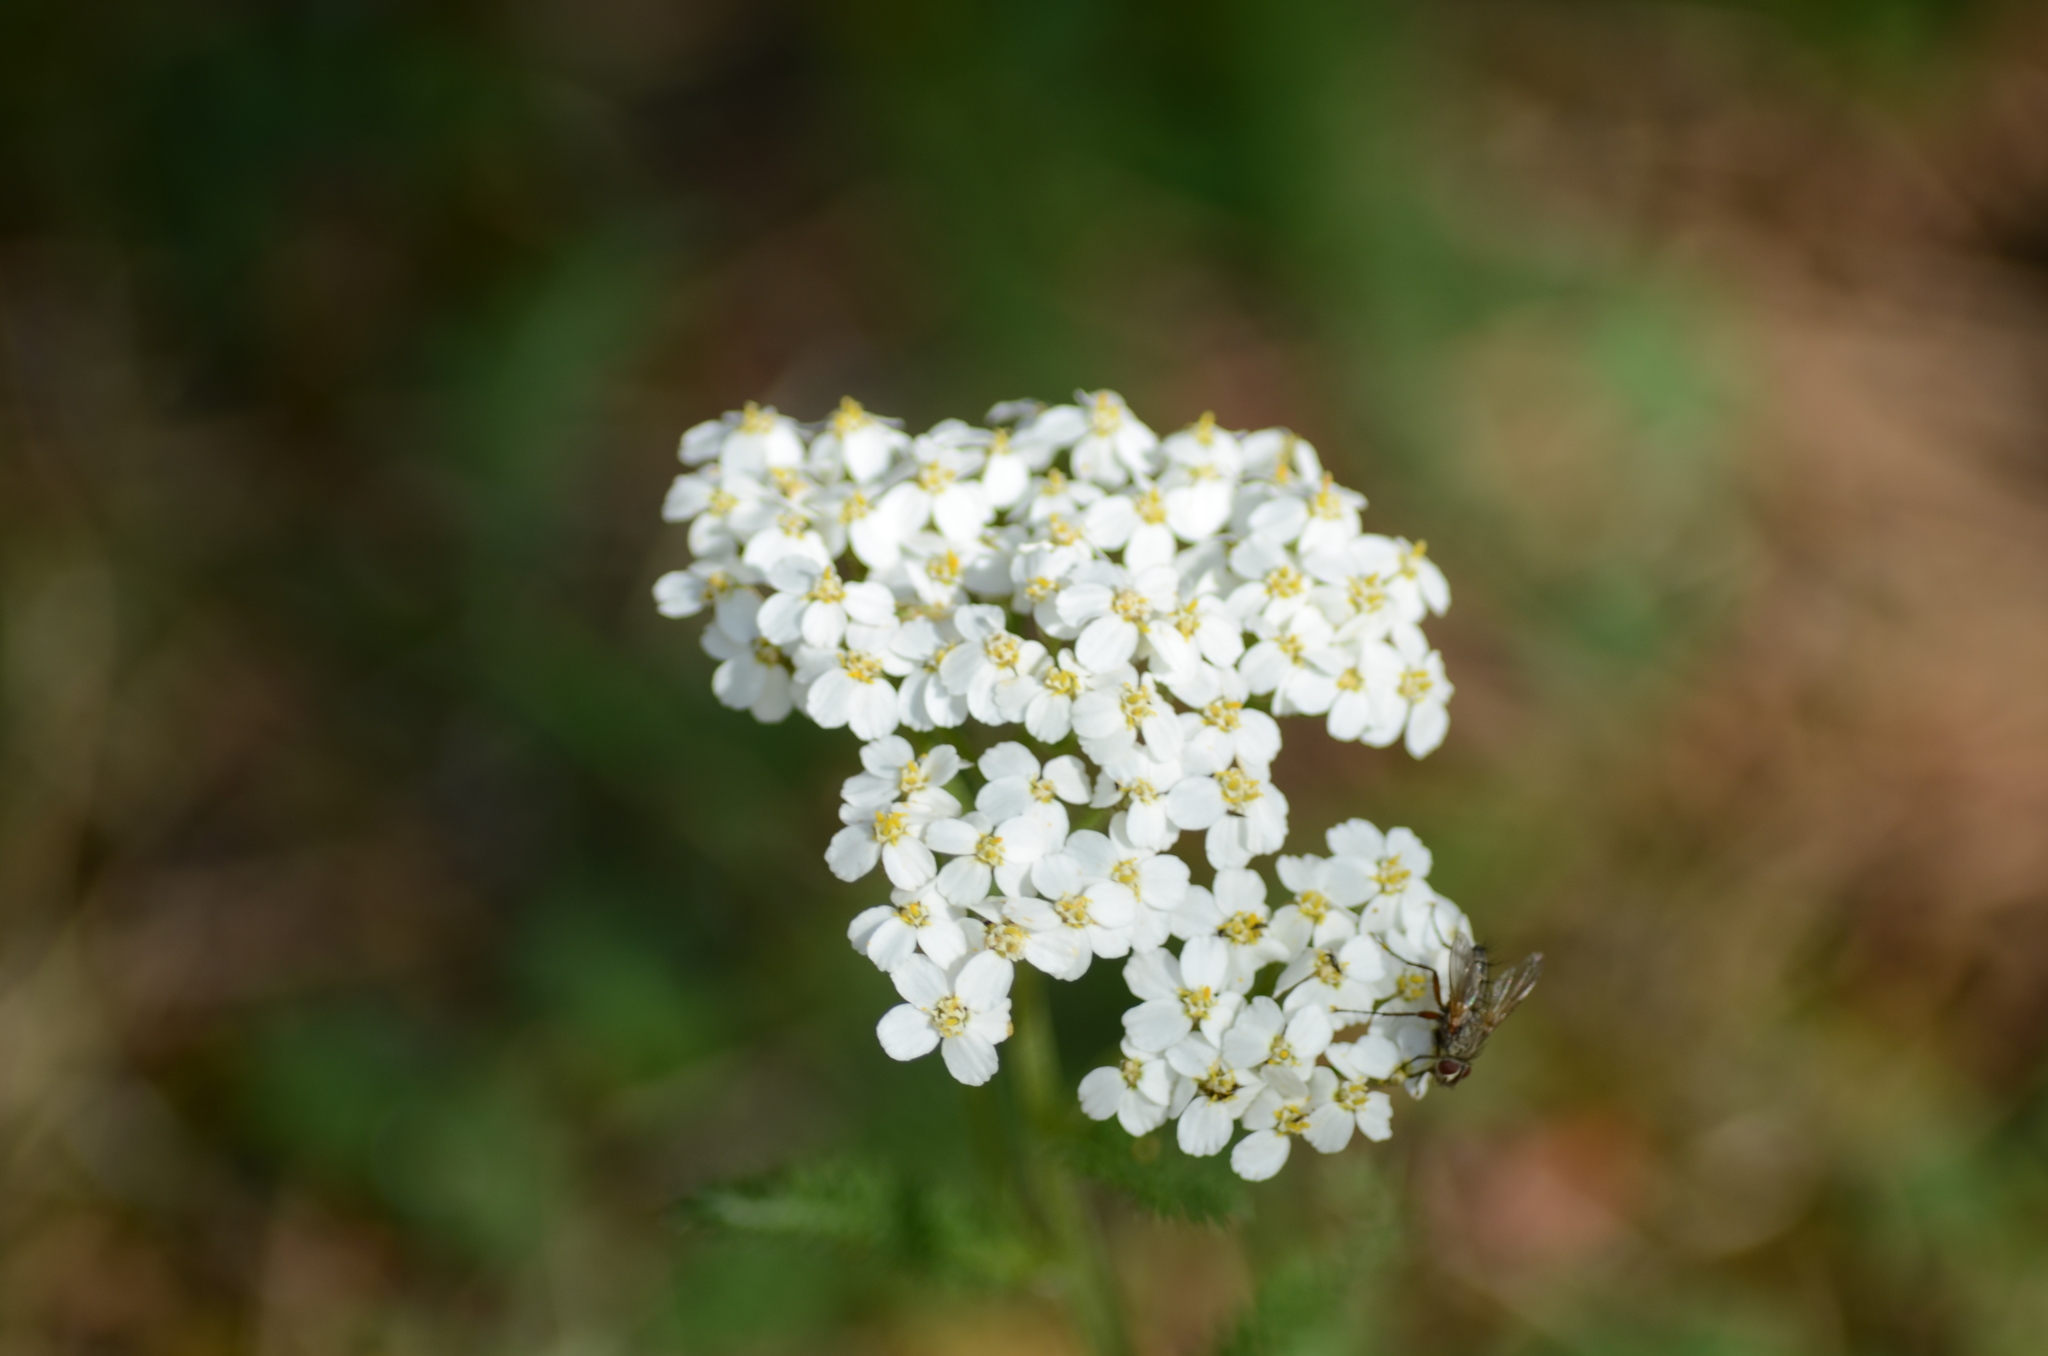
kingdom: Plantae
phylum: Tracheophyta
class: Magnoliopsida
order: Asterales
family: Asteraceae
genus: Achillea
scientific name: Achillea millefolium
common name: Yarrow
